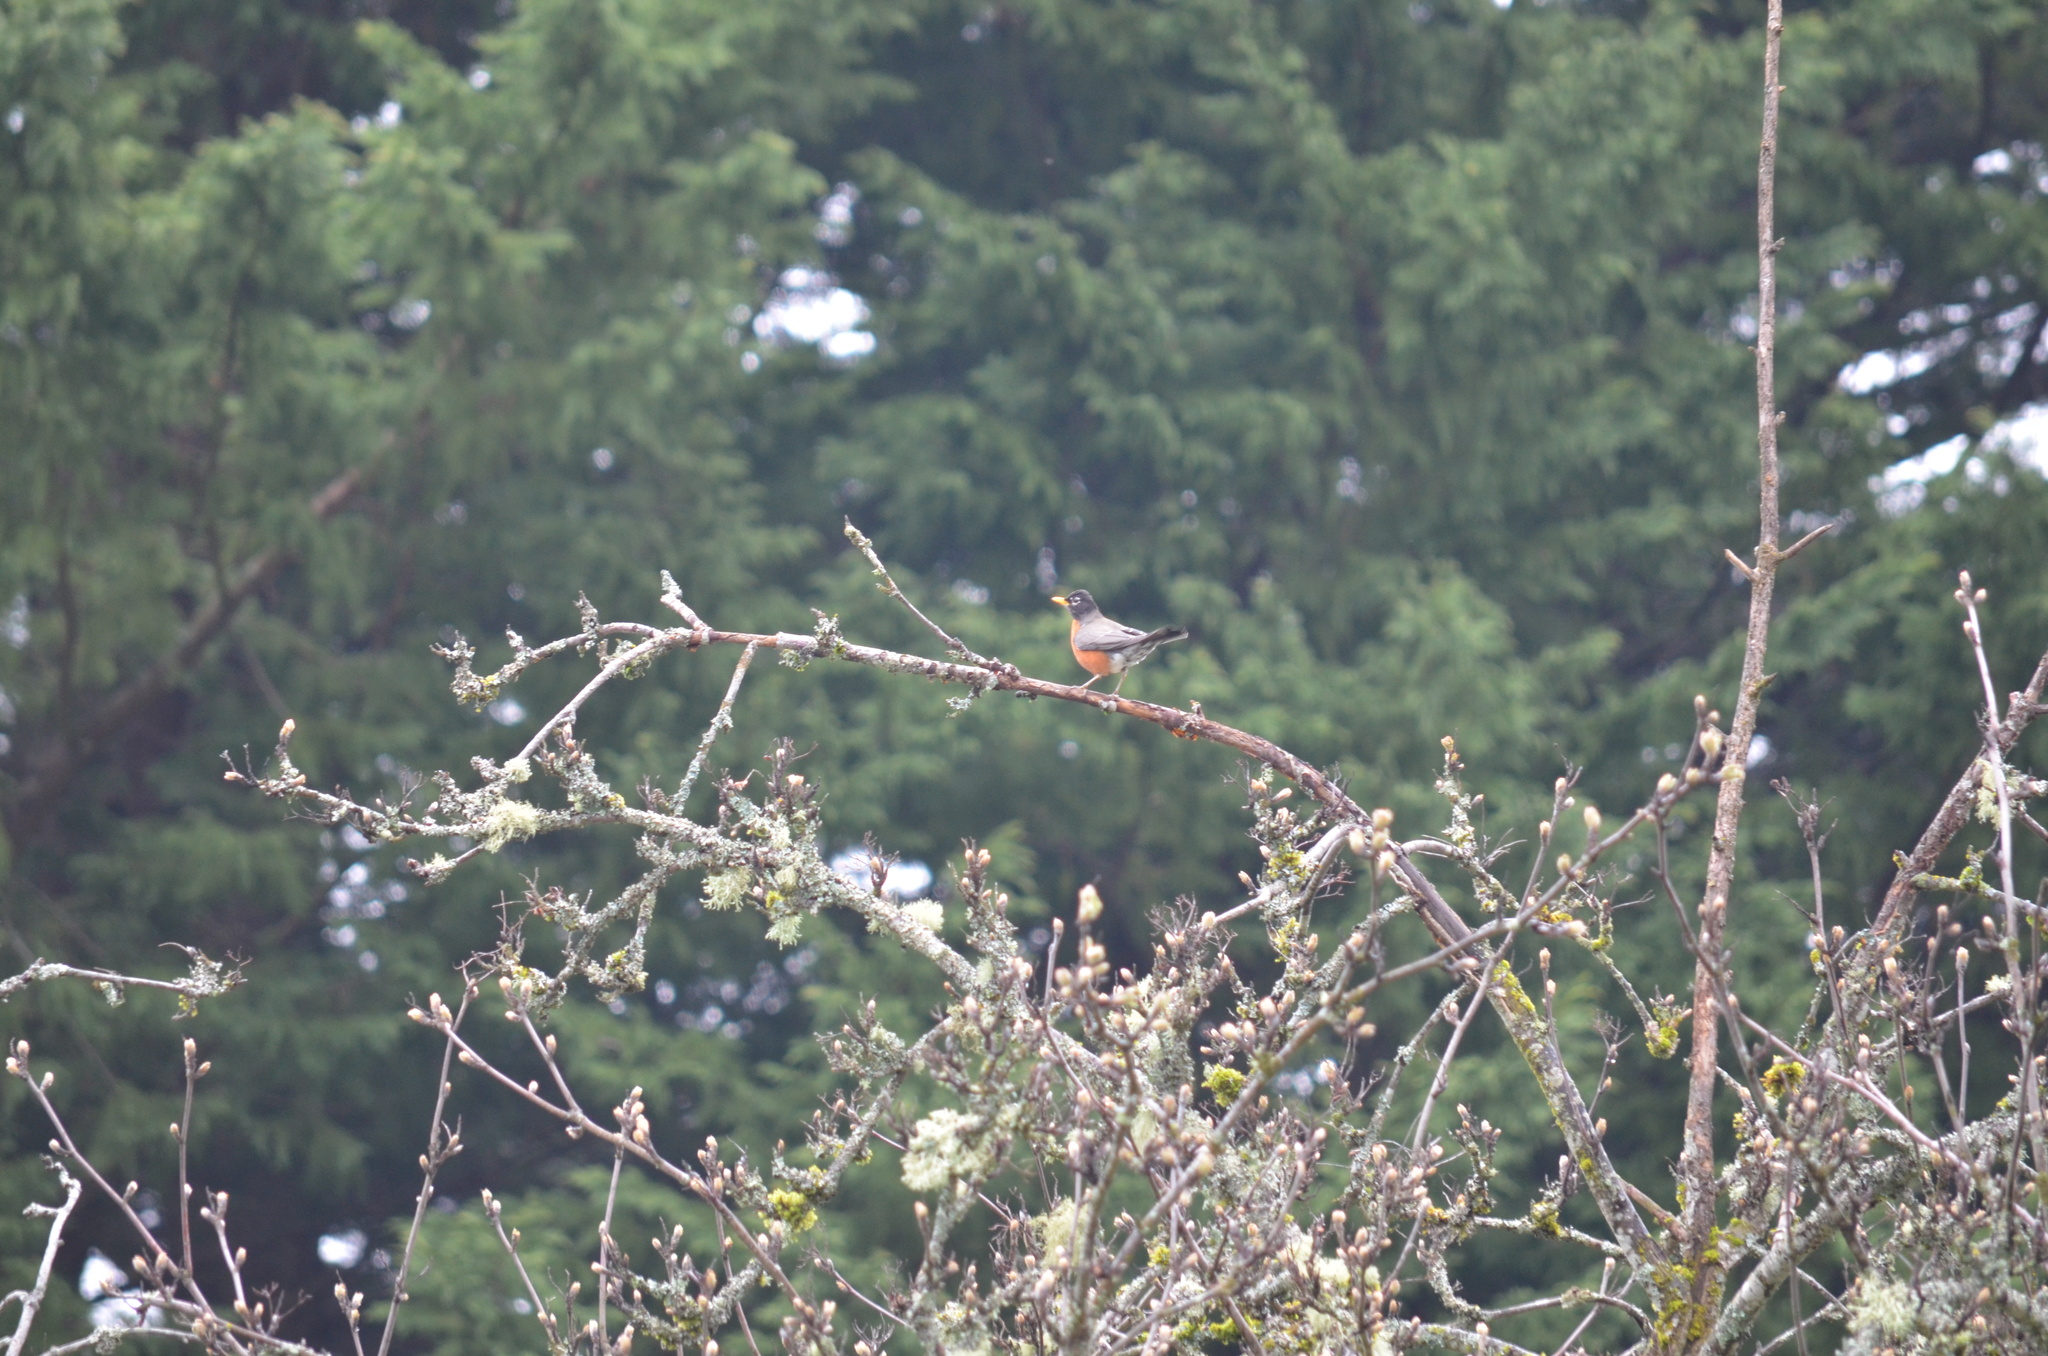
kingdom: Animalia
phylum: Chordata
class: Aves
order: Passeriformes
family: Turdidae
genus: Turdus
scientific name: Turdus migratorius
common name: American robin
